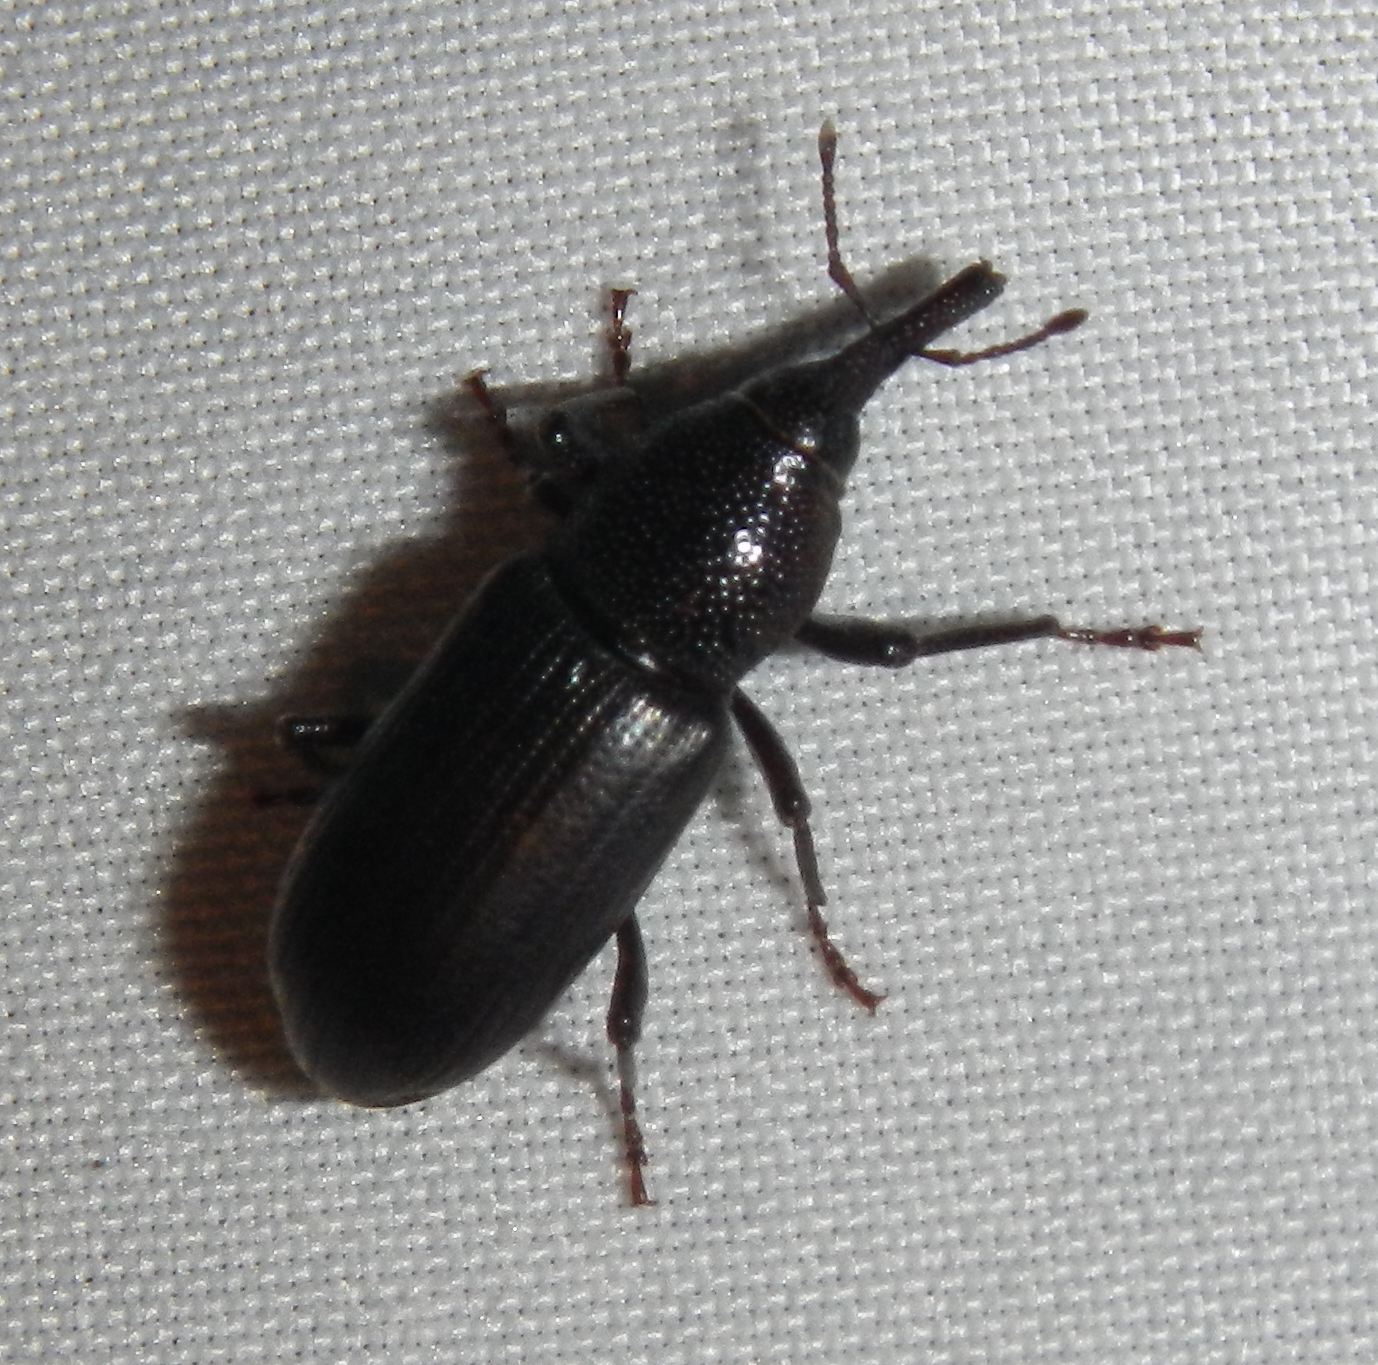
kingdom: Animalia
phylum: Arthropoda
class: Insecta
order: Coleoptera
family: Dryophthoridae
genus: Rhinostomus
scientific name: Rhinostomus
